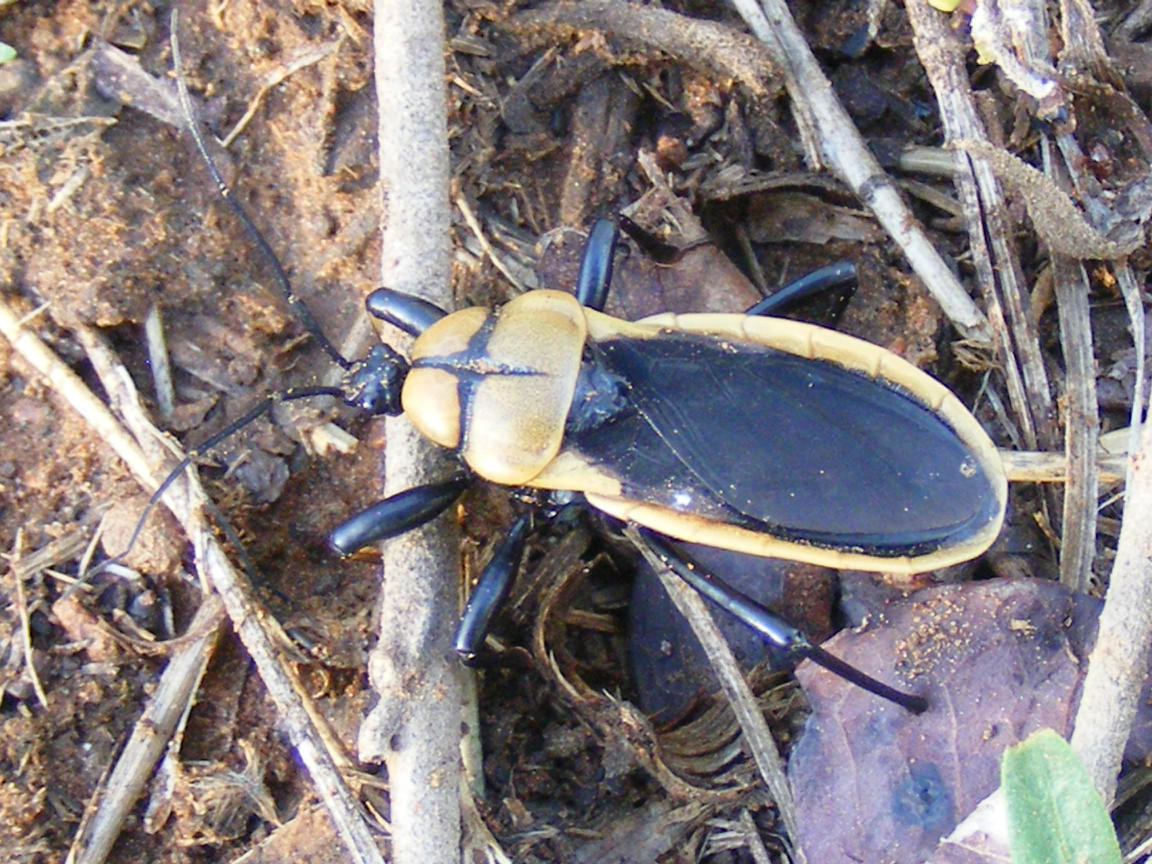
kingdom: Animalia
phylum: Arthropoda
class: Insecta
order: Hemiptera
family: Reduviidae
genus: Ectrichodia
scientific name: Ectrichodia crux
